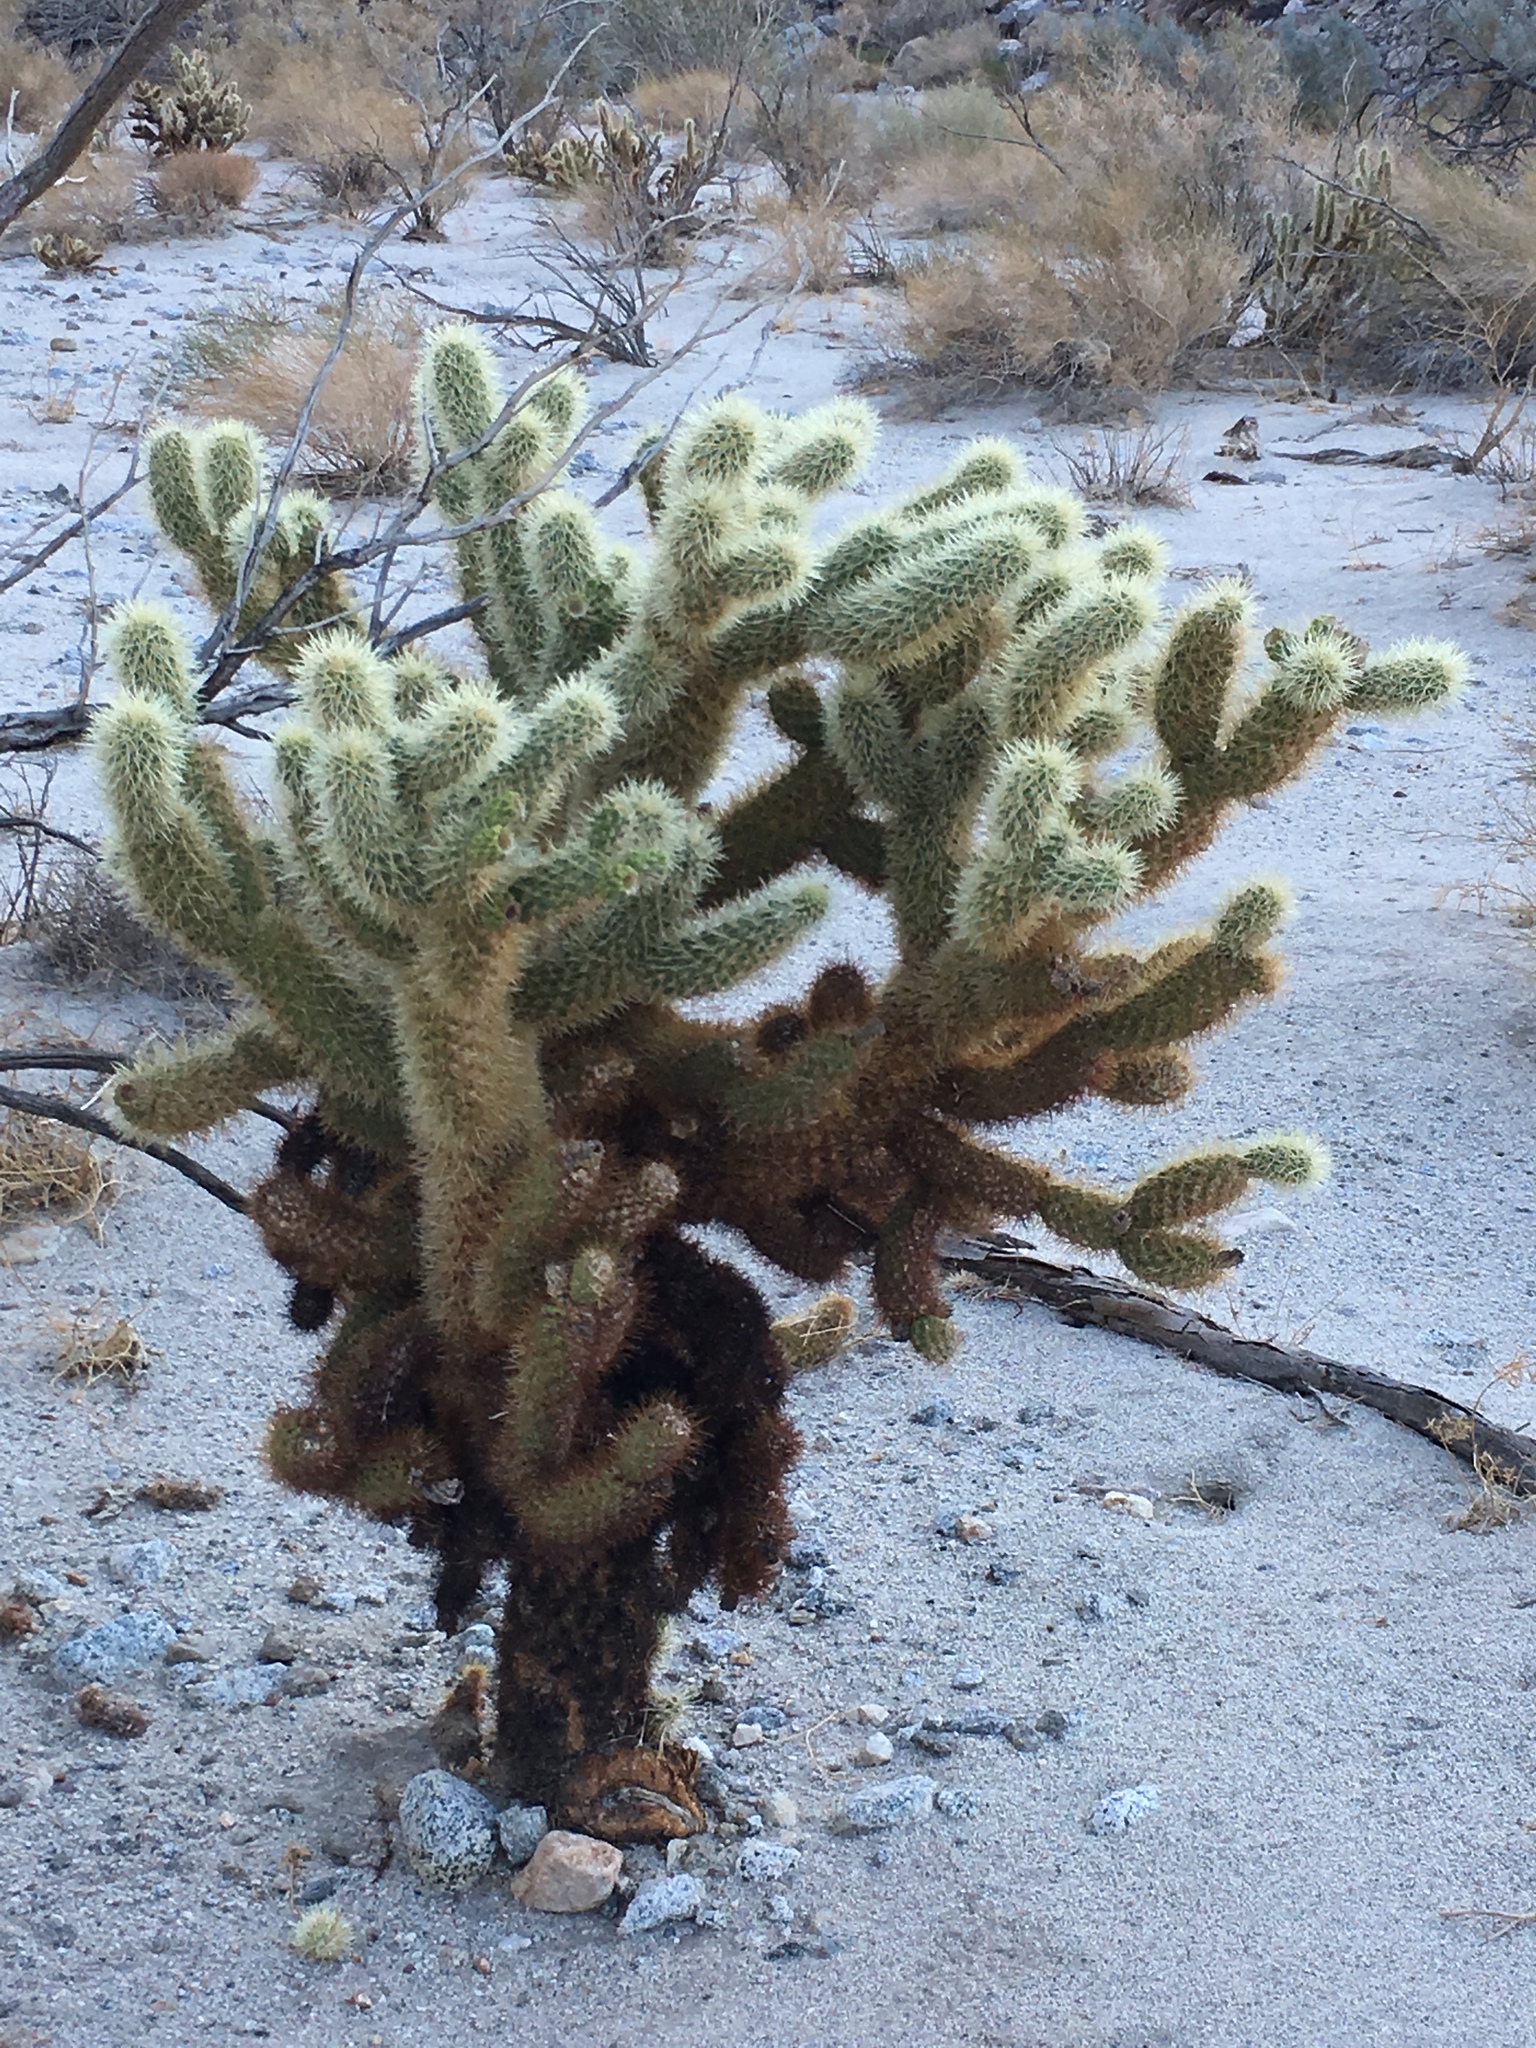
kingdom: Plantae
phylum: Tracheophyta
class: Magnoliopsida
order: Caryophyllales
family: Cactaceae
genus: Cylindropuntia
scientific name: Cylindropuntia fosbergii
